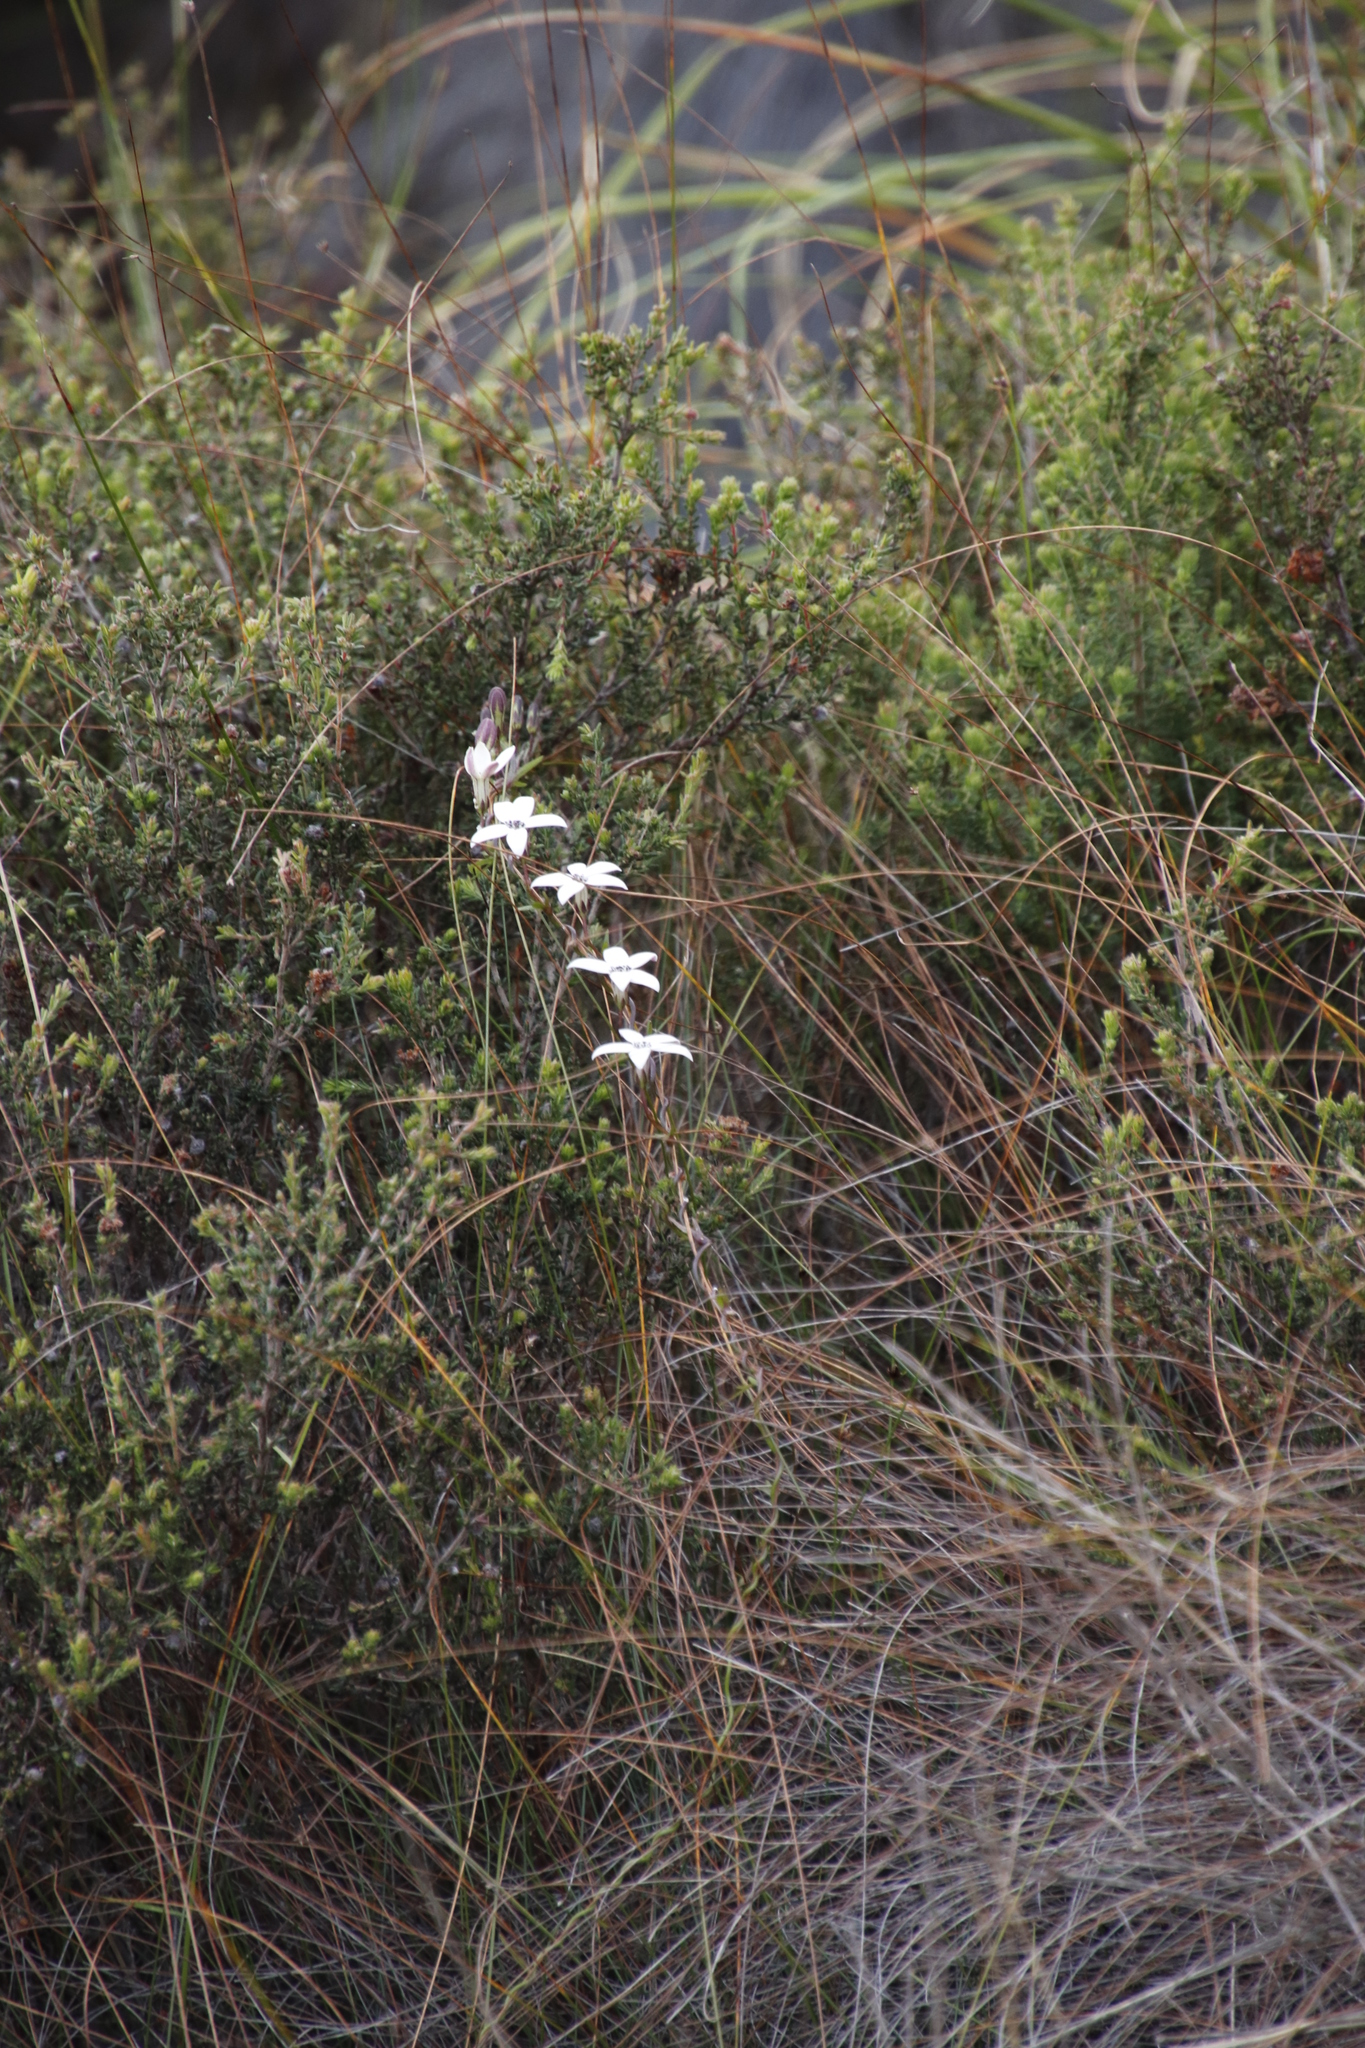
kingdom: Plantae
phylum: Tracheophyta
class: Magnoliopsida
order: Asterales
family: Campanulaceae
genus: Cyphia
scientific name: Cyphia volubilis
